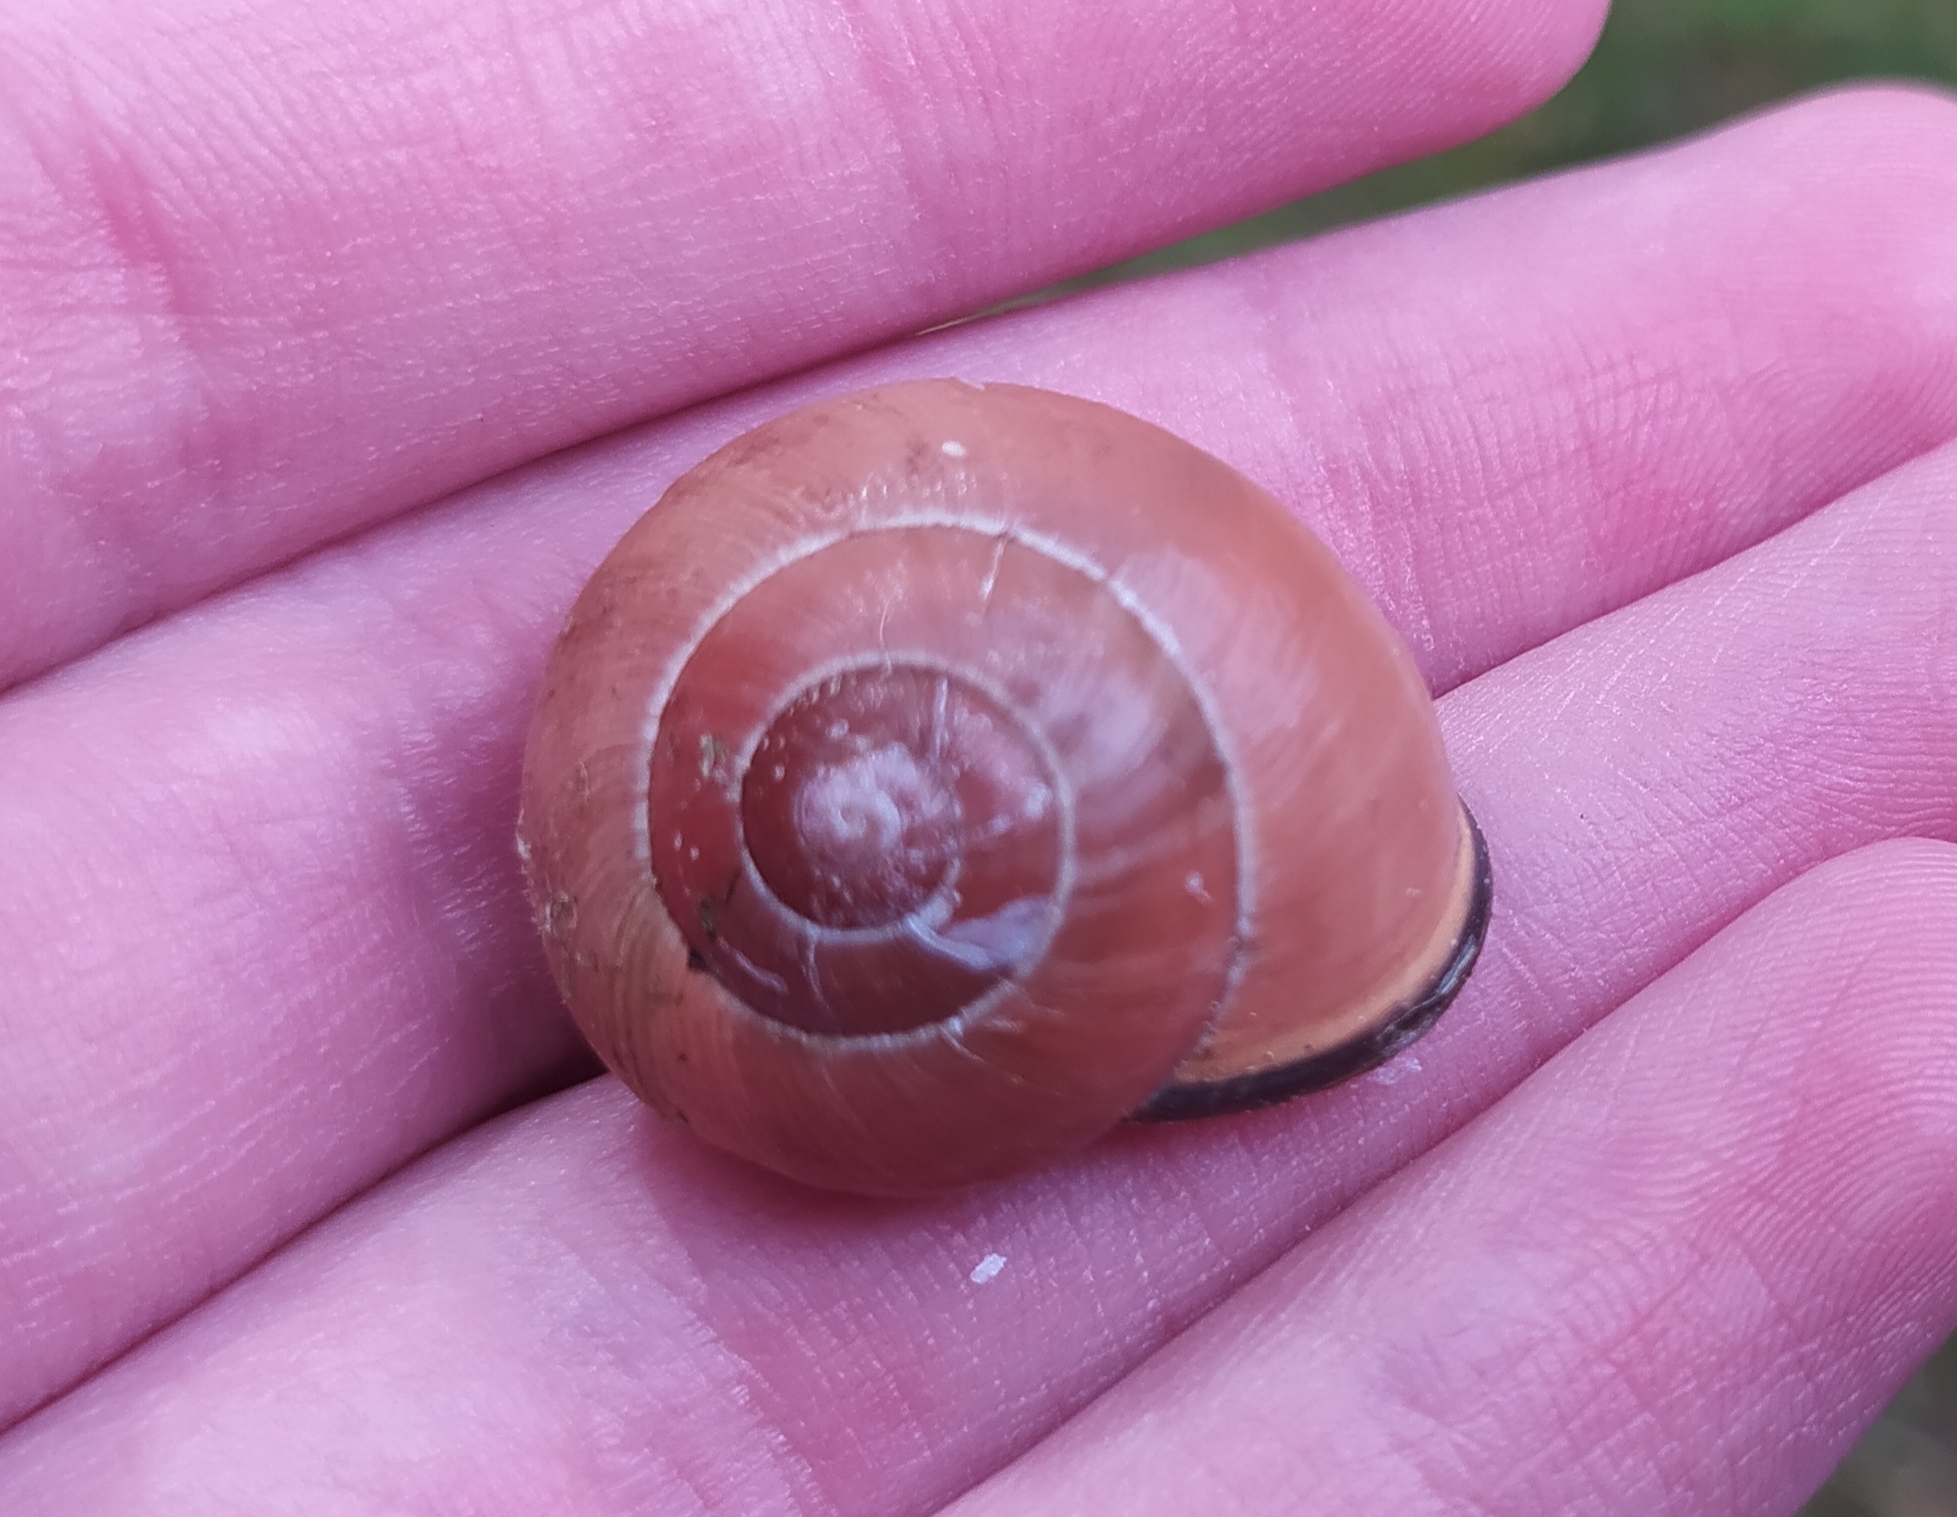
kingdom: Animalia
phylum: Mollusca
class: Gastropoda
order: Stylommatophora
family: Helicidae
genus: Cepaea
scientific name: Cepaea nemoralis
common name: Grovesnail
